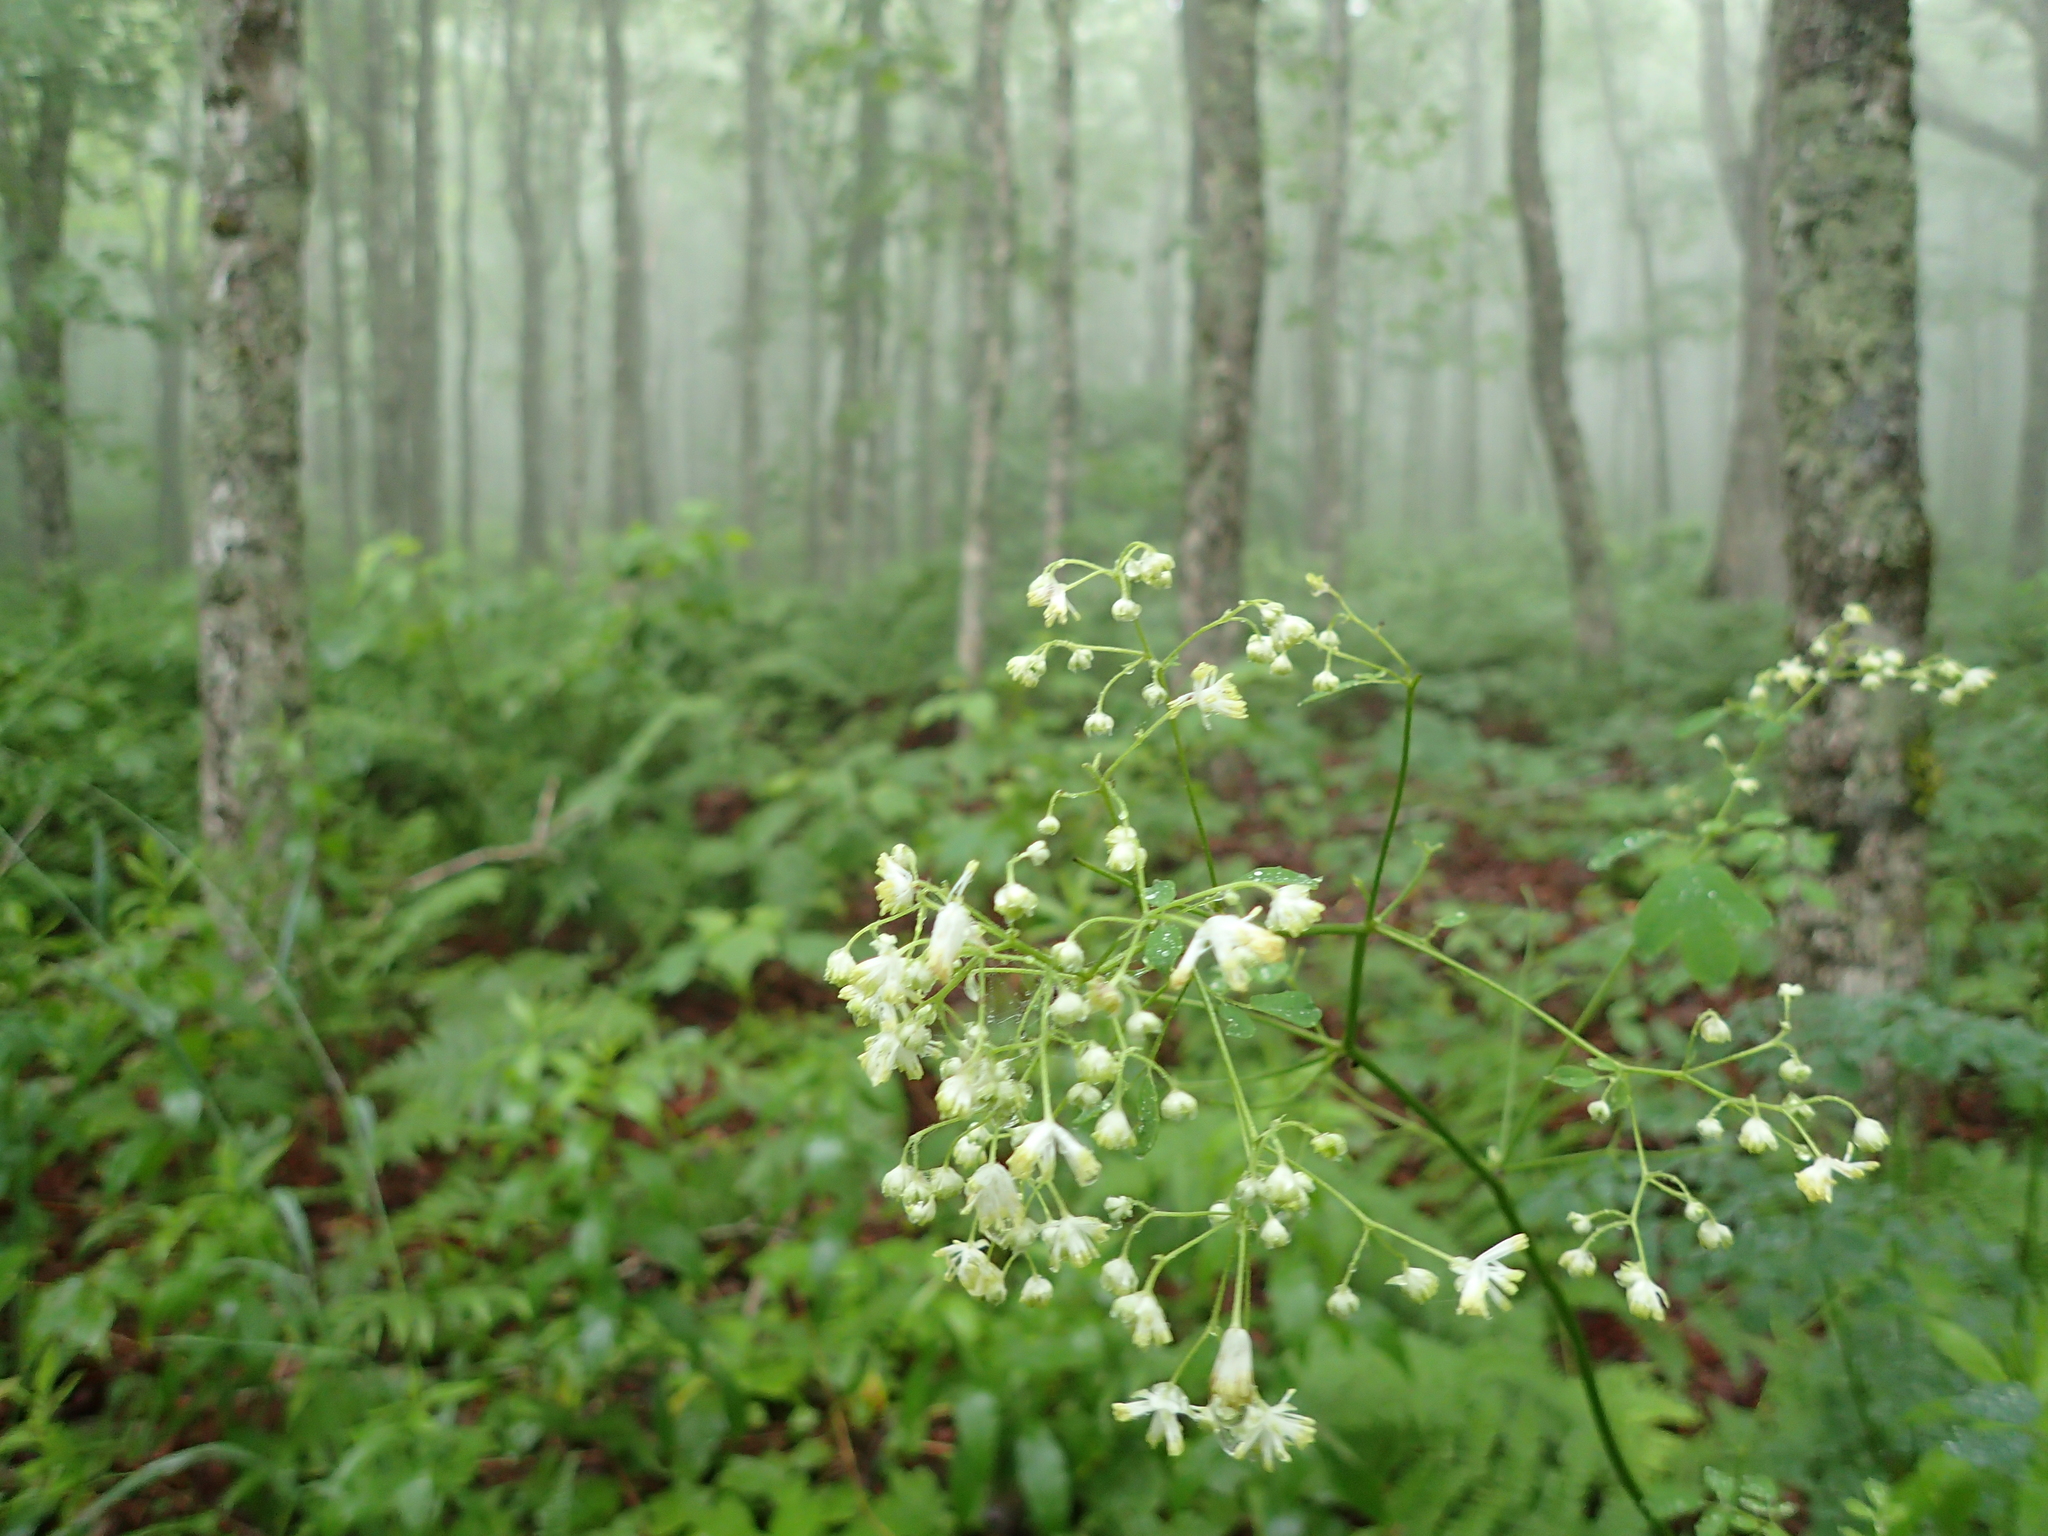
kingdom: Plantae
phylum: Tracheophyta
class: Magnoliopsida
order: Ranunculales
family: Ranunculaceae
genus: Thalictrum
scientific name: Thalictrum pubescens
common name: King-of-the-meadow
